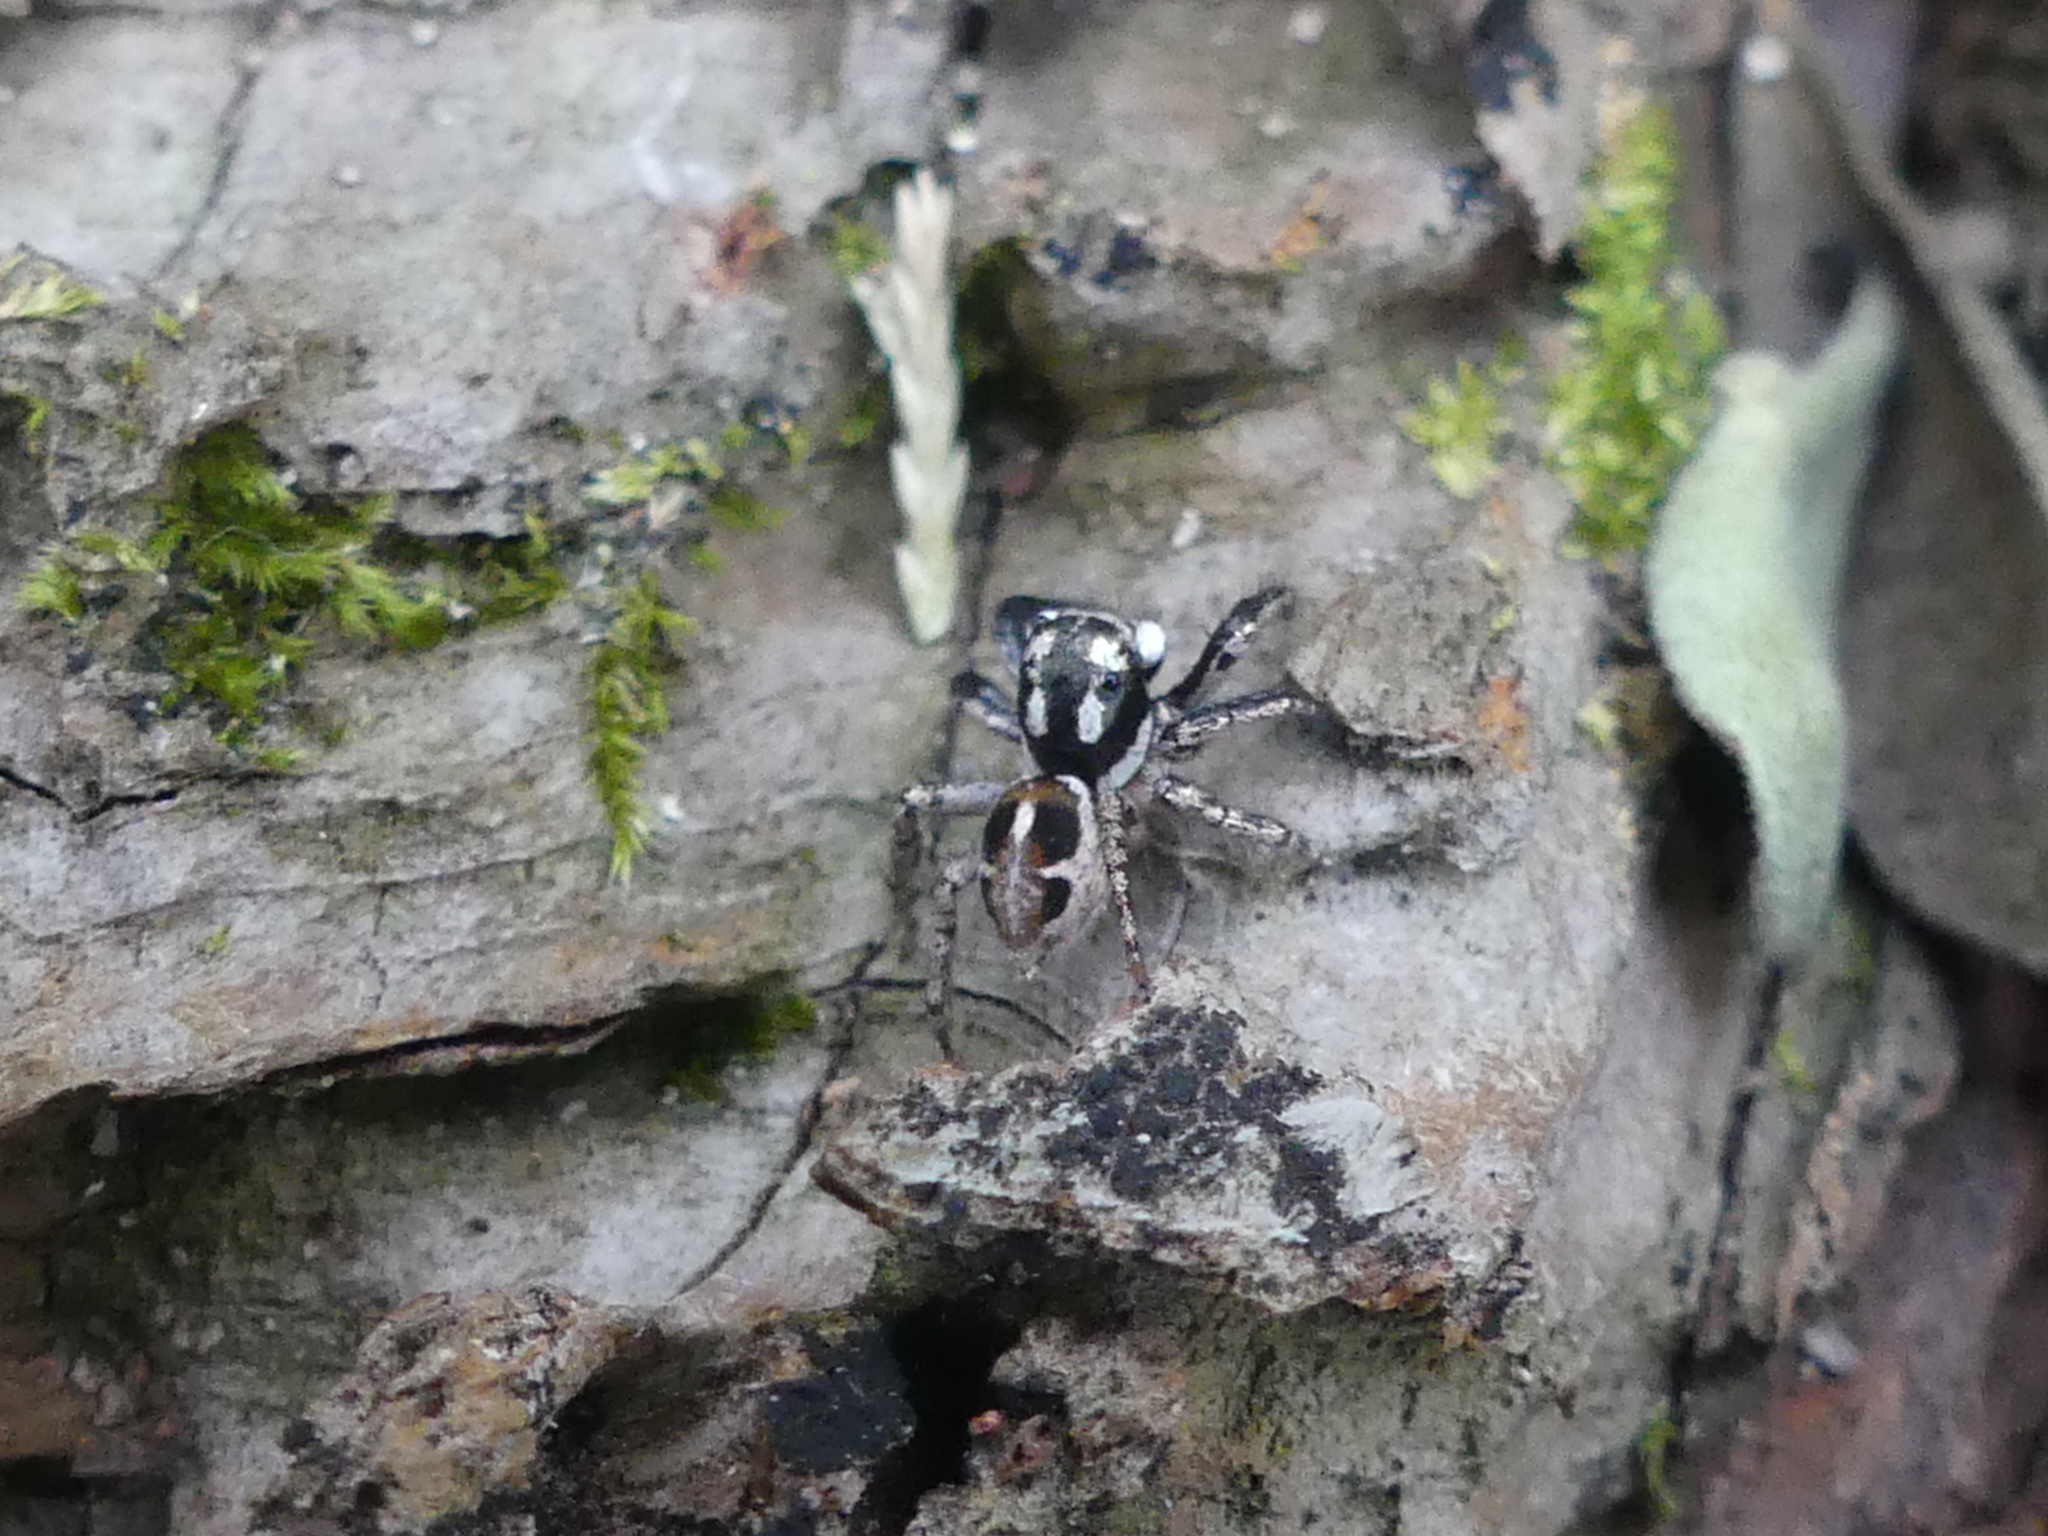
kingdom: Animalia
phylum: Arthropoda
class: Arachnida
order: Araneae
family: Salticidae
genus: Anasaitis
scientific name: Anasaitis canosa
